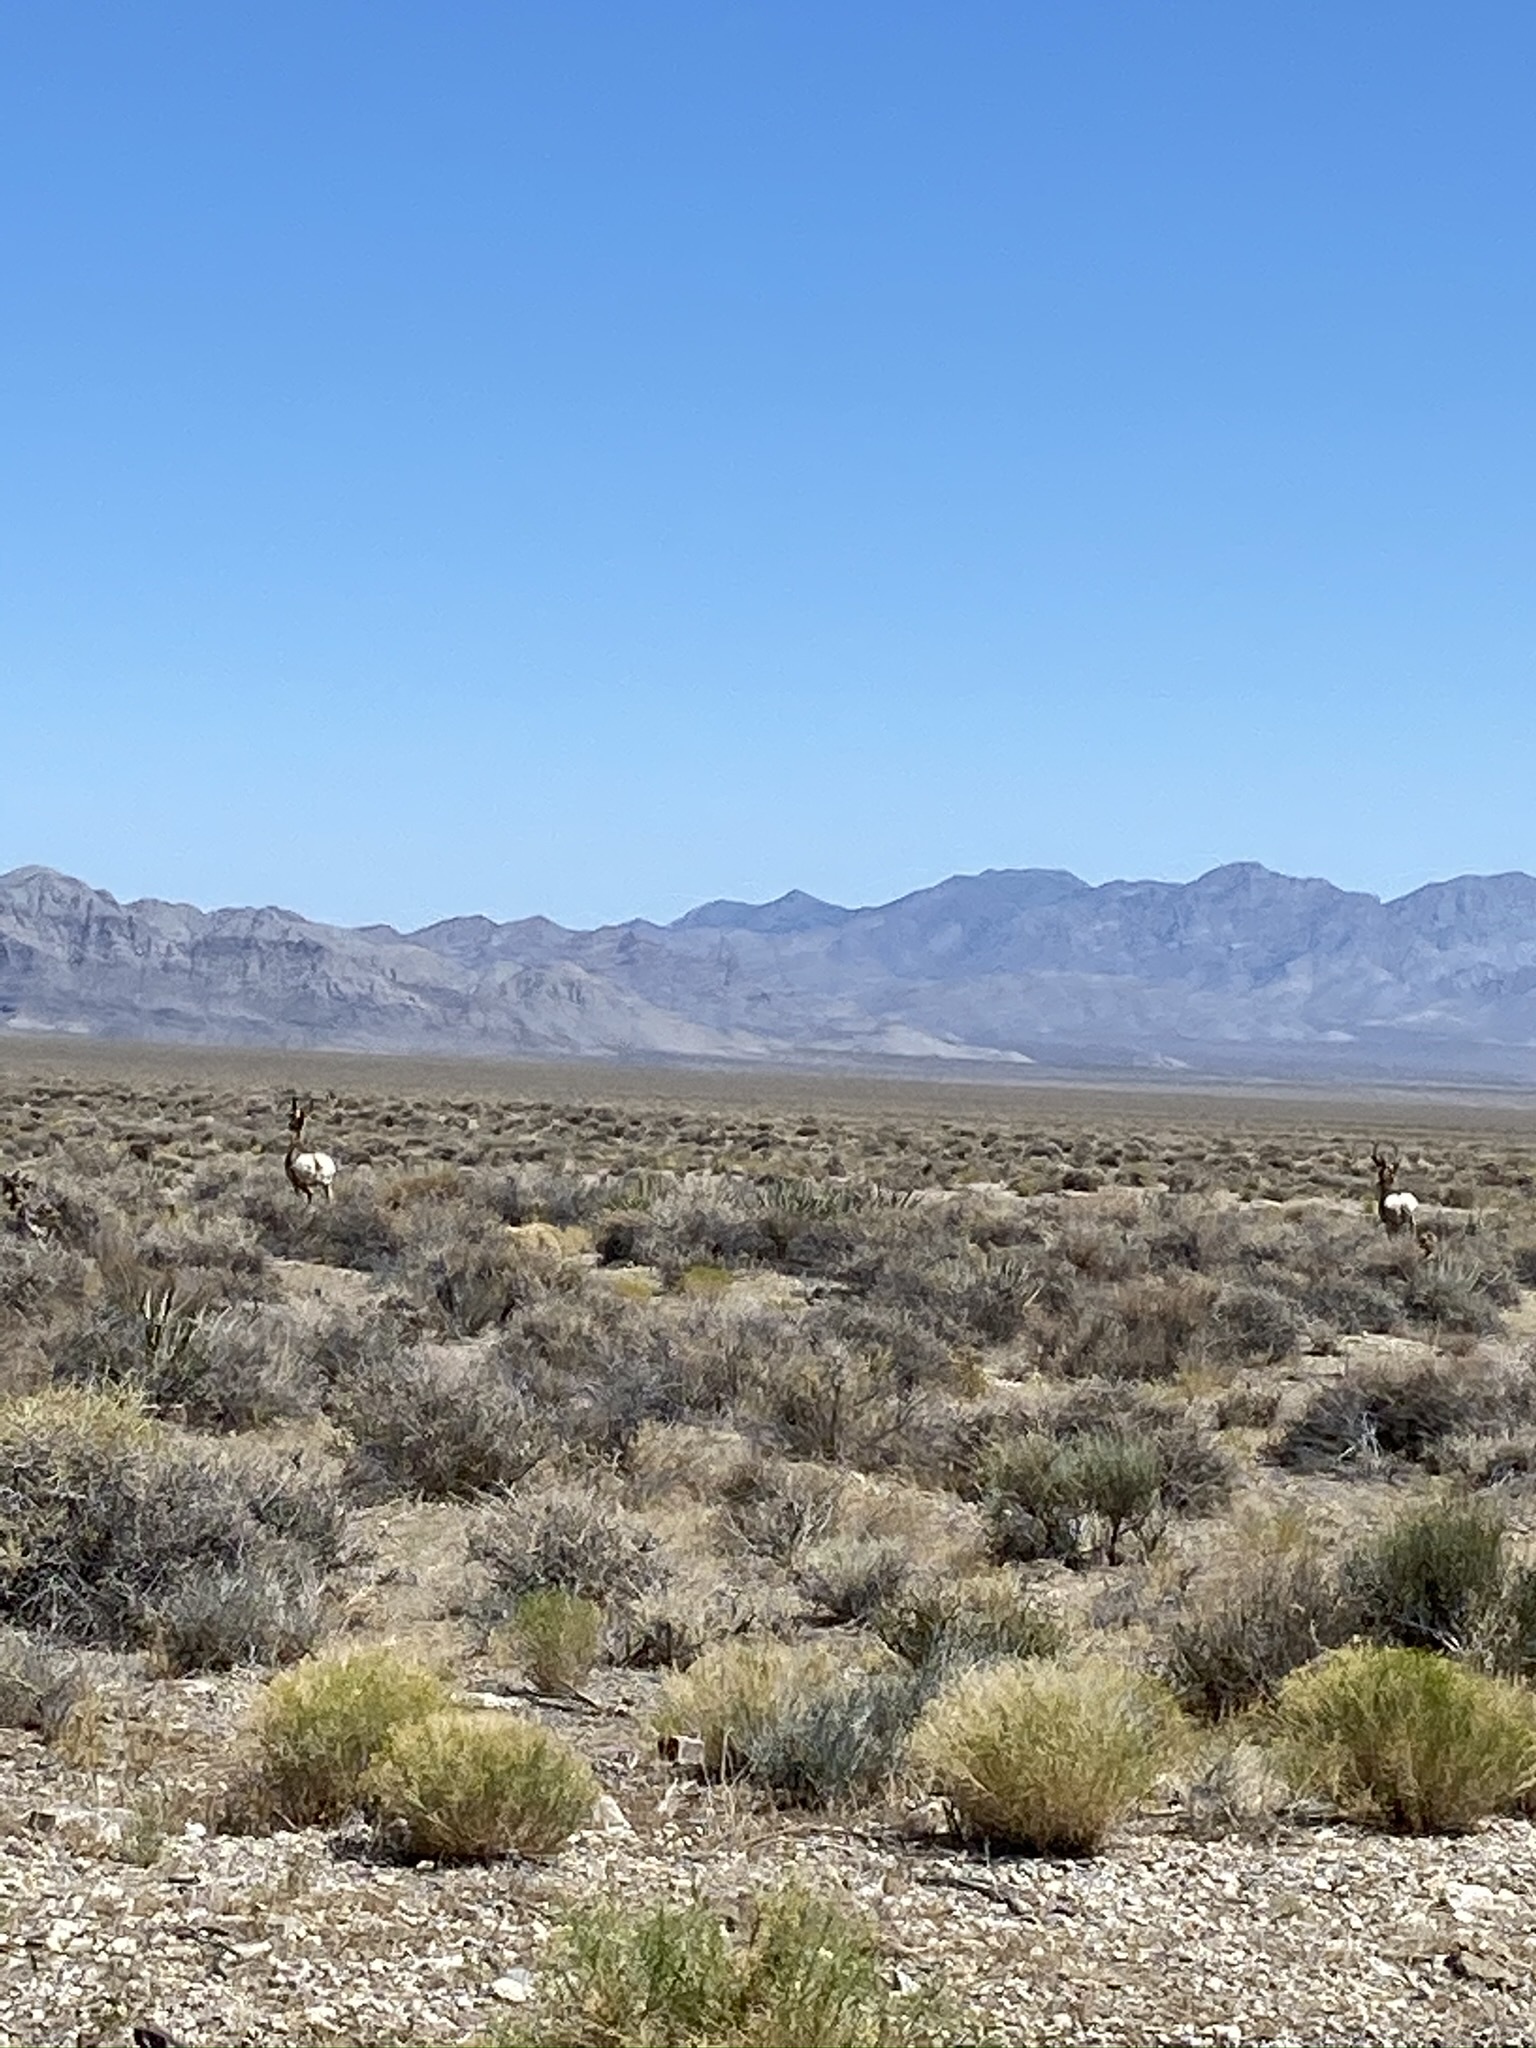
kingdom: Animalia
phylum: Chordata
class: Mammalia
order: Artiodactyla
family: Antilocapridae
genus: Antilocapra
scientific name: Antilocapra americana
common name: Pronghorn
